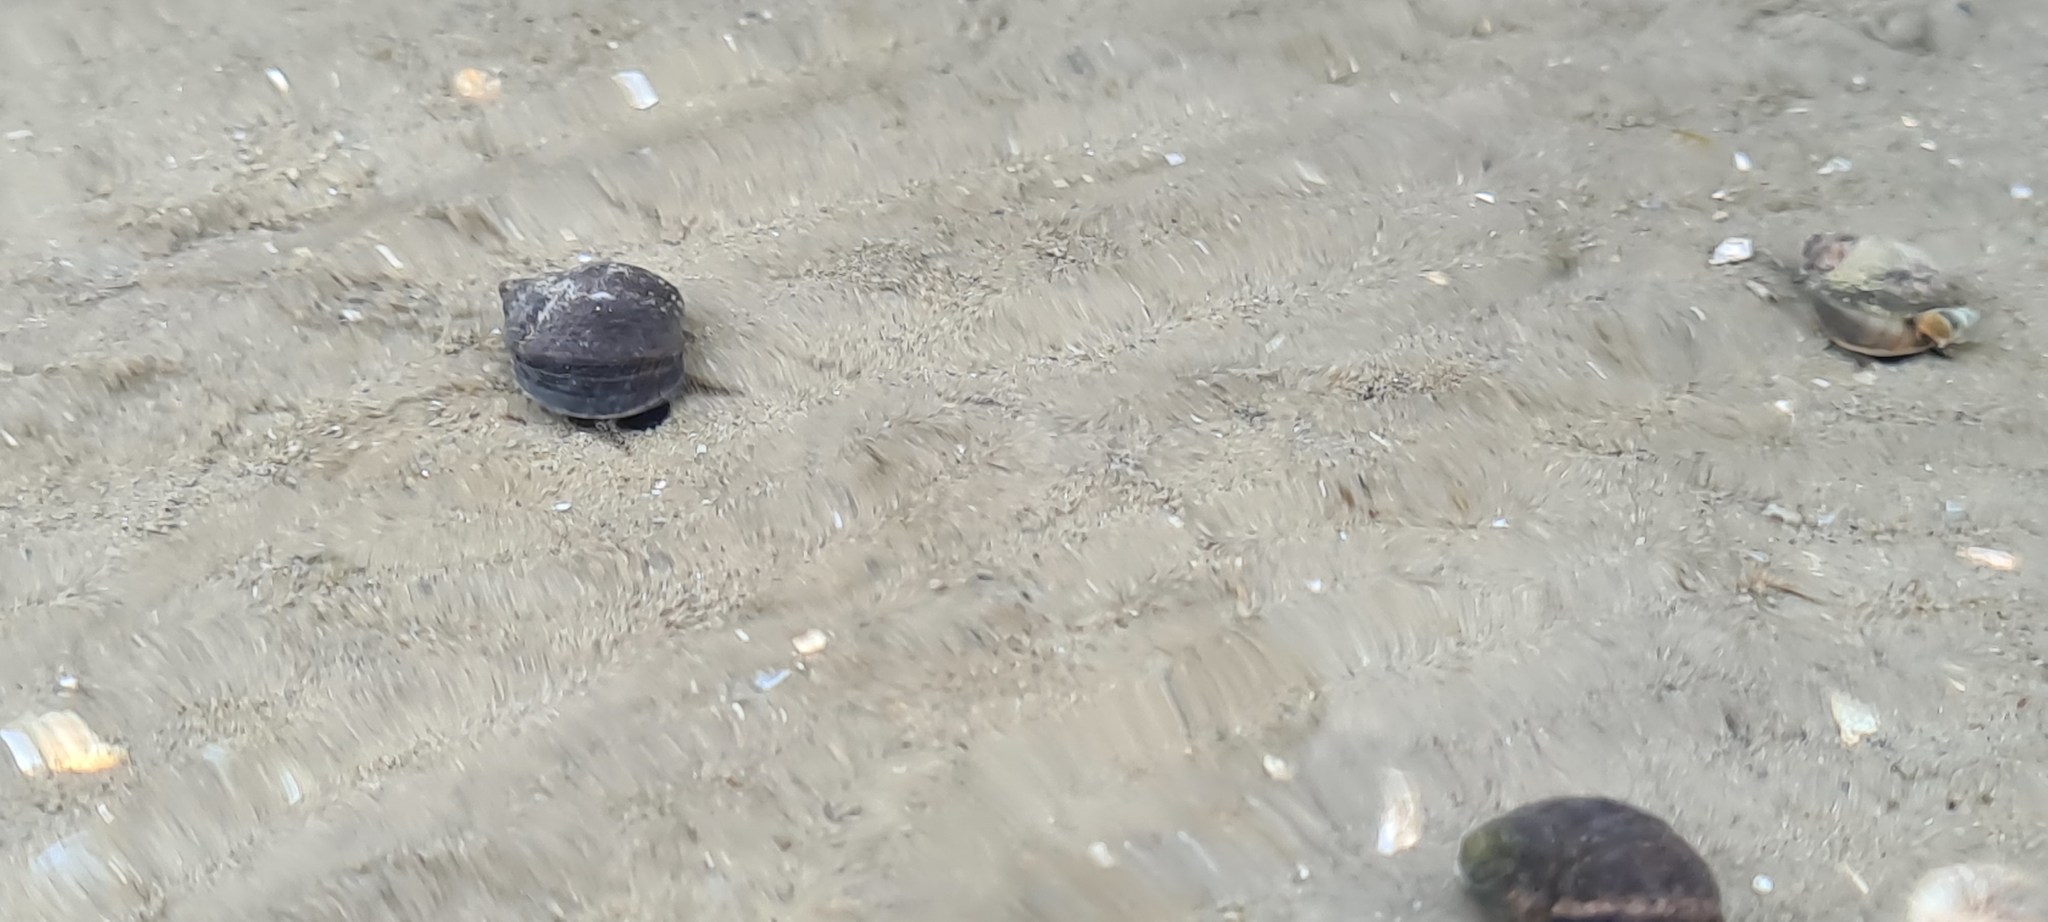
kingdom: Animalia
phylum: Mollusca
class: Gastropoda
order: Littorinimorpha
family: Littorinidae
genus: Littorina
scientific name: Littorina littorea
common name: Common periwinkle
